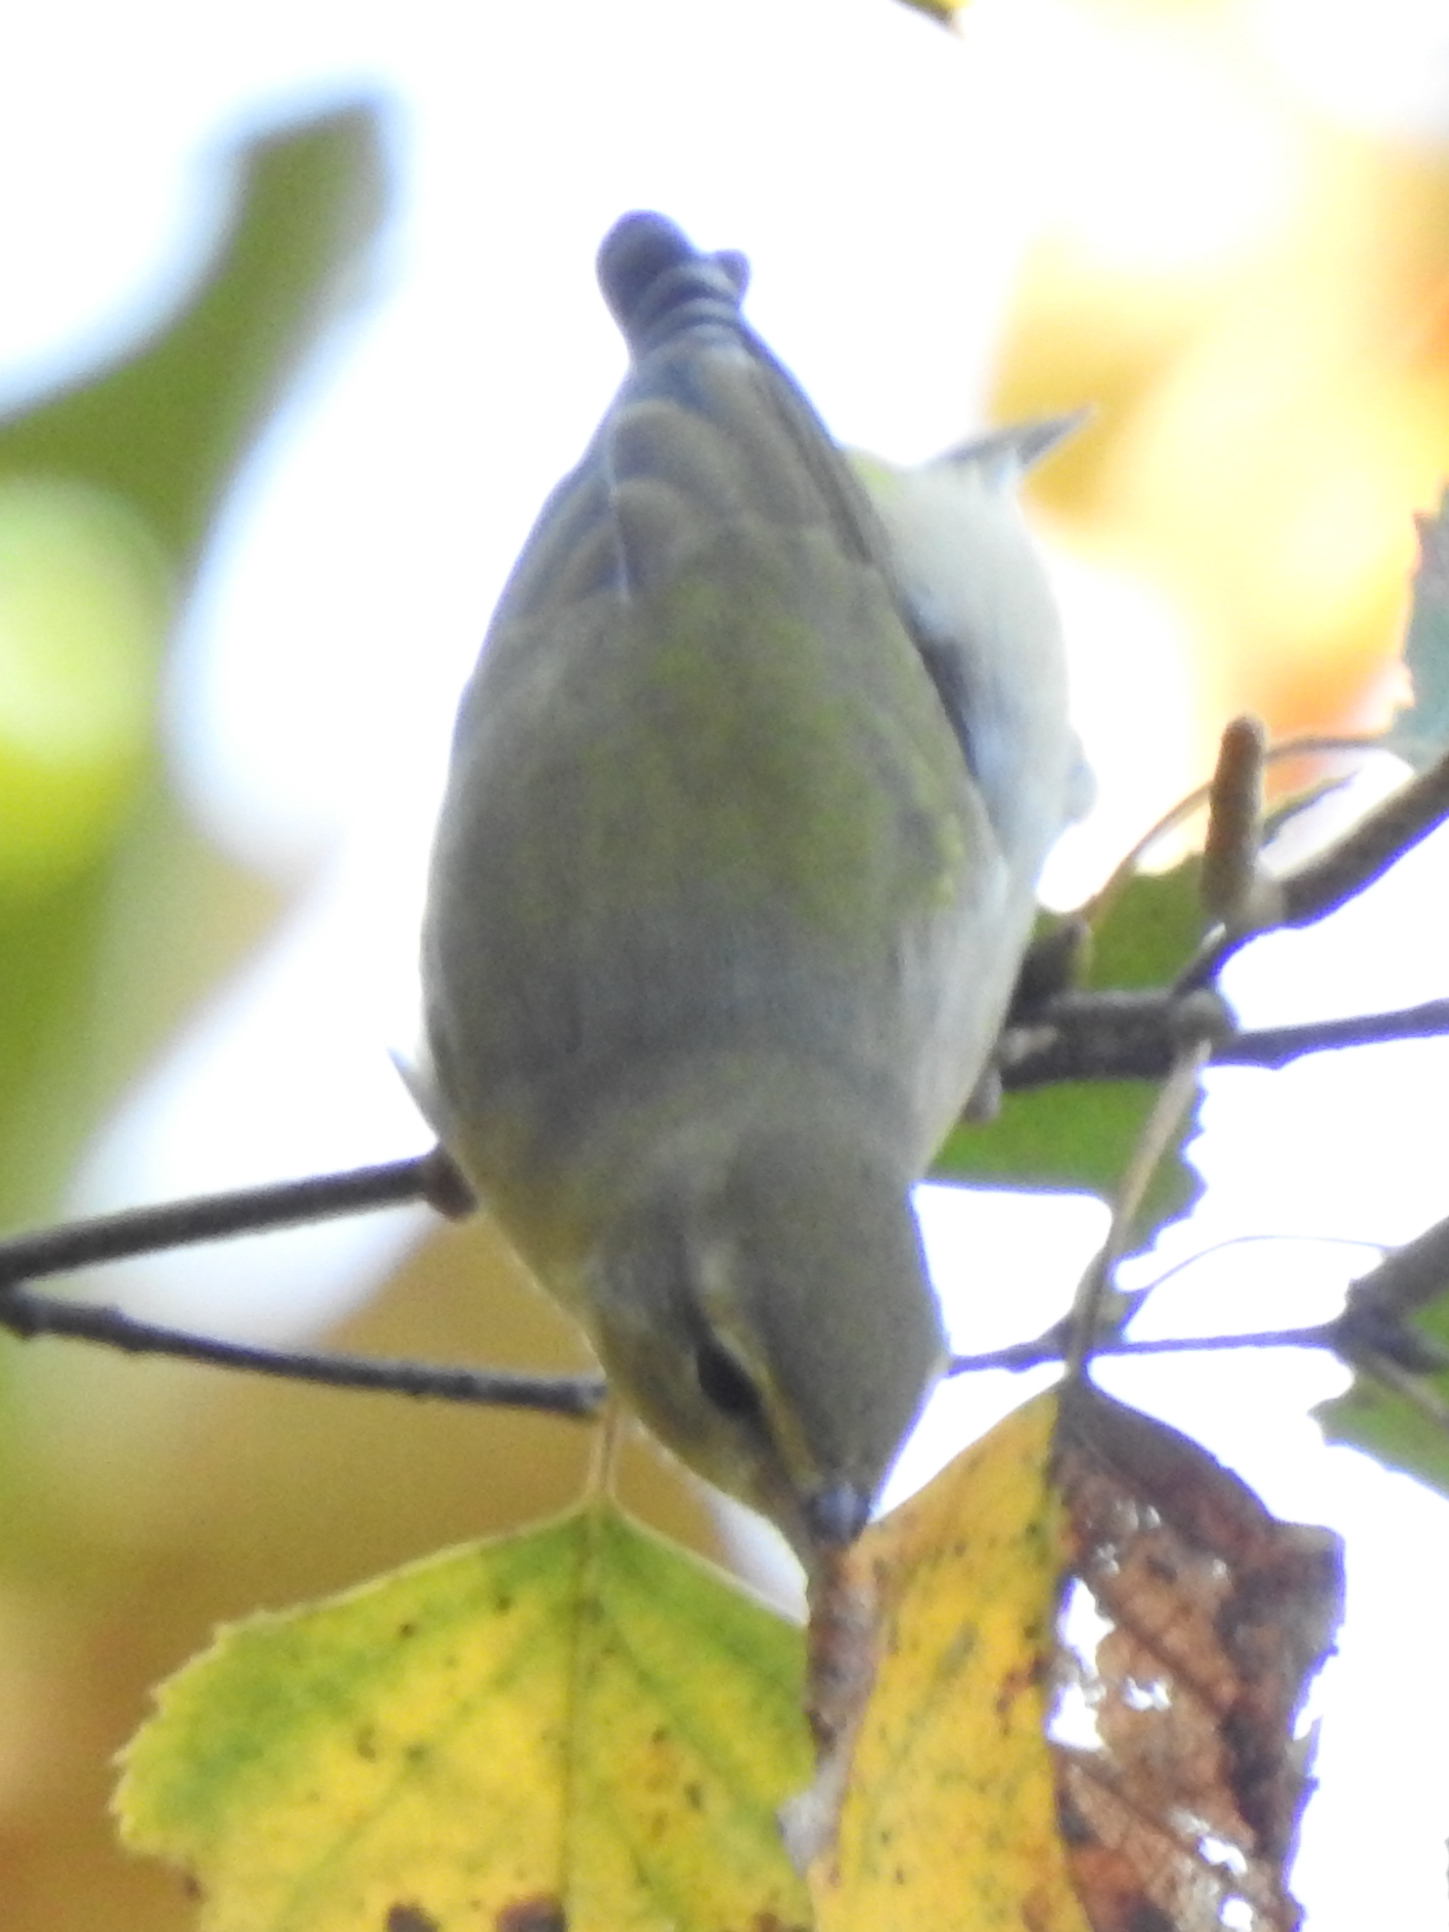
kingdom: Animalia
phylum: Chordata
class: Aves
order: Passeriformes
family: Parulidae
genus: Leiothlypis
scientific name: Leiothlypis peregrina
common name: Tennessee warbler
